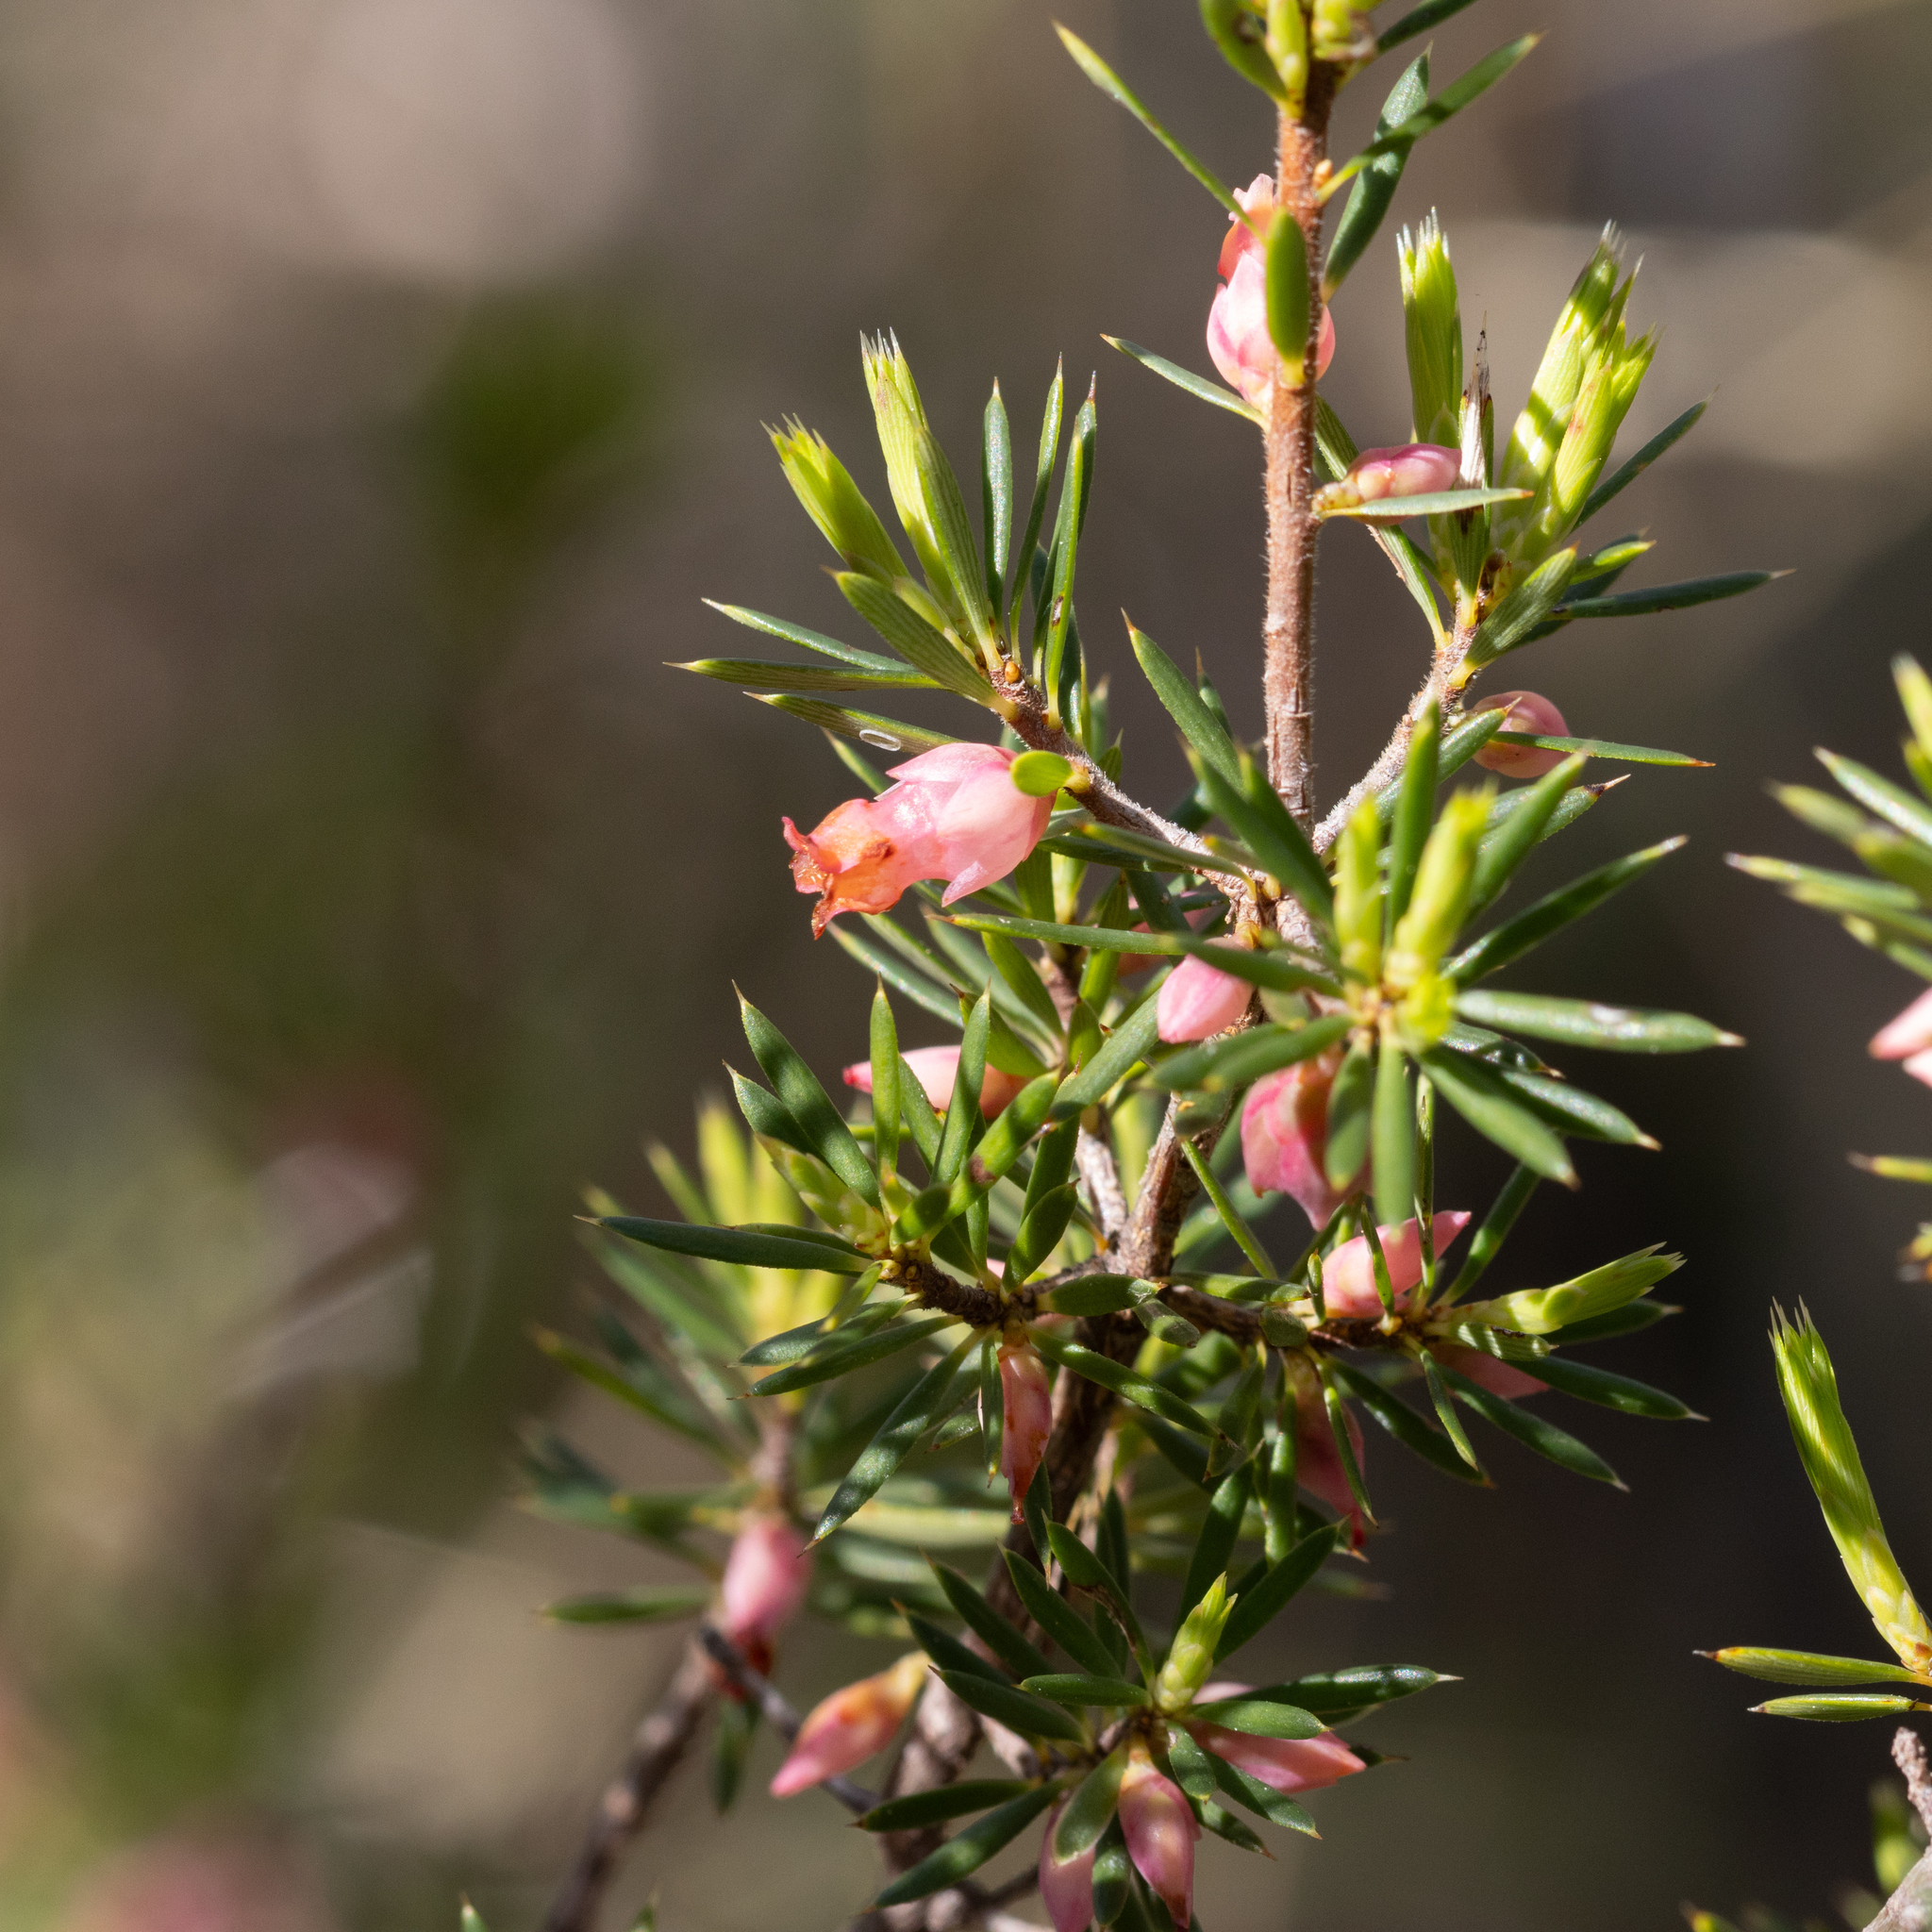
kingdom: Plantae
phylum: Tracheophyta
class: Magnoliopsida
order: Ericales
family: Ericaceae
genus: Brachyloma
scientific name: Brachyloma ericoides
